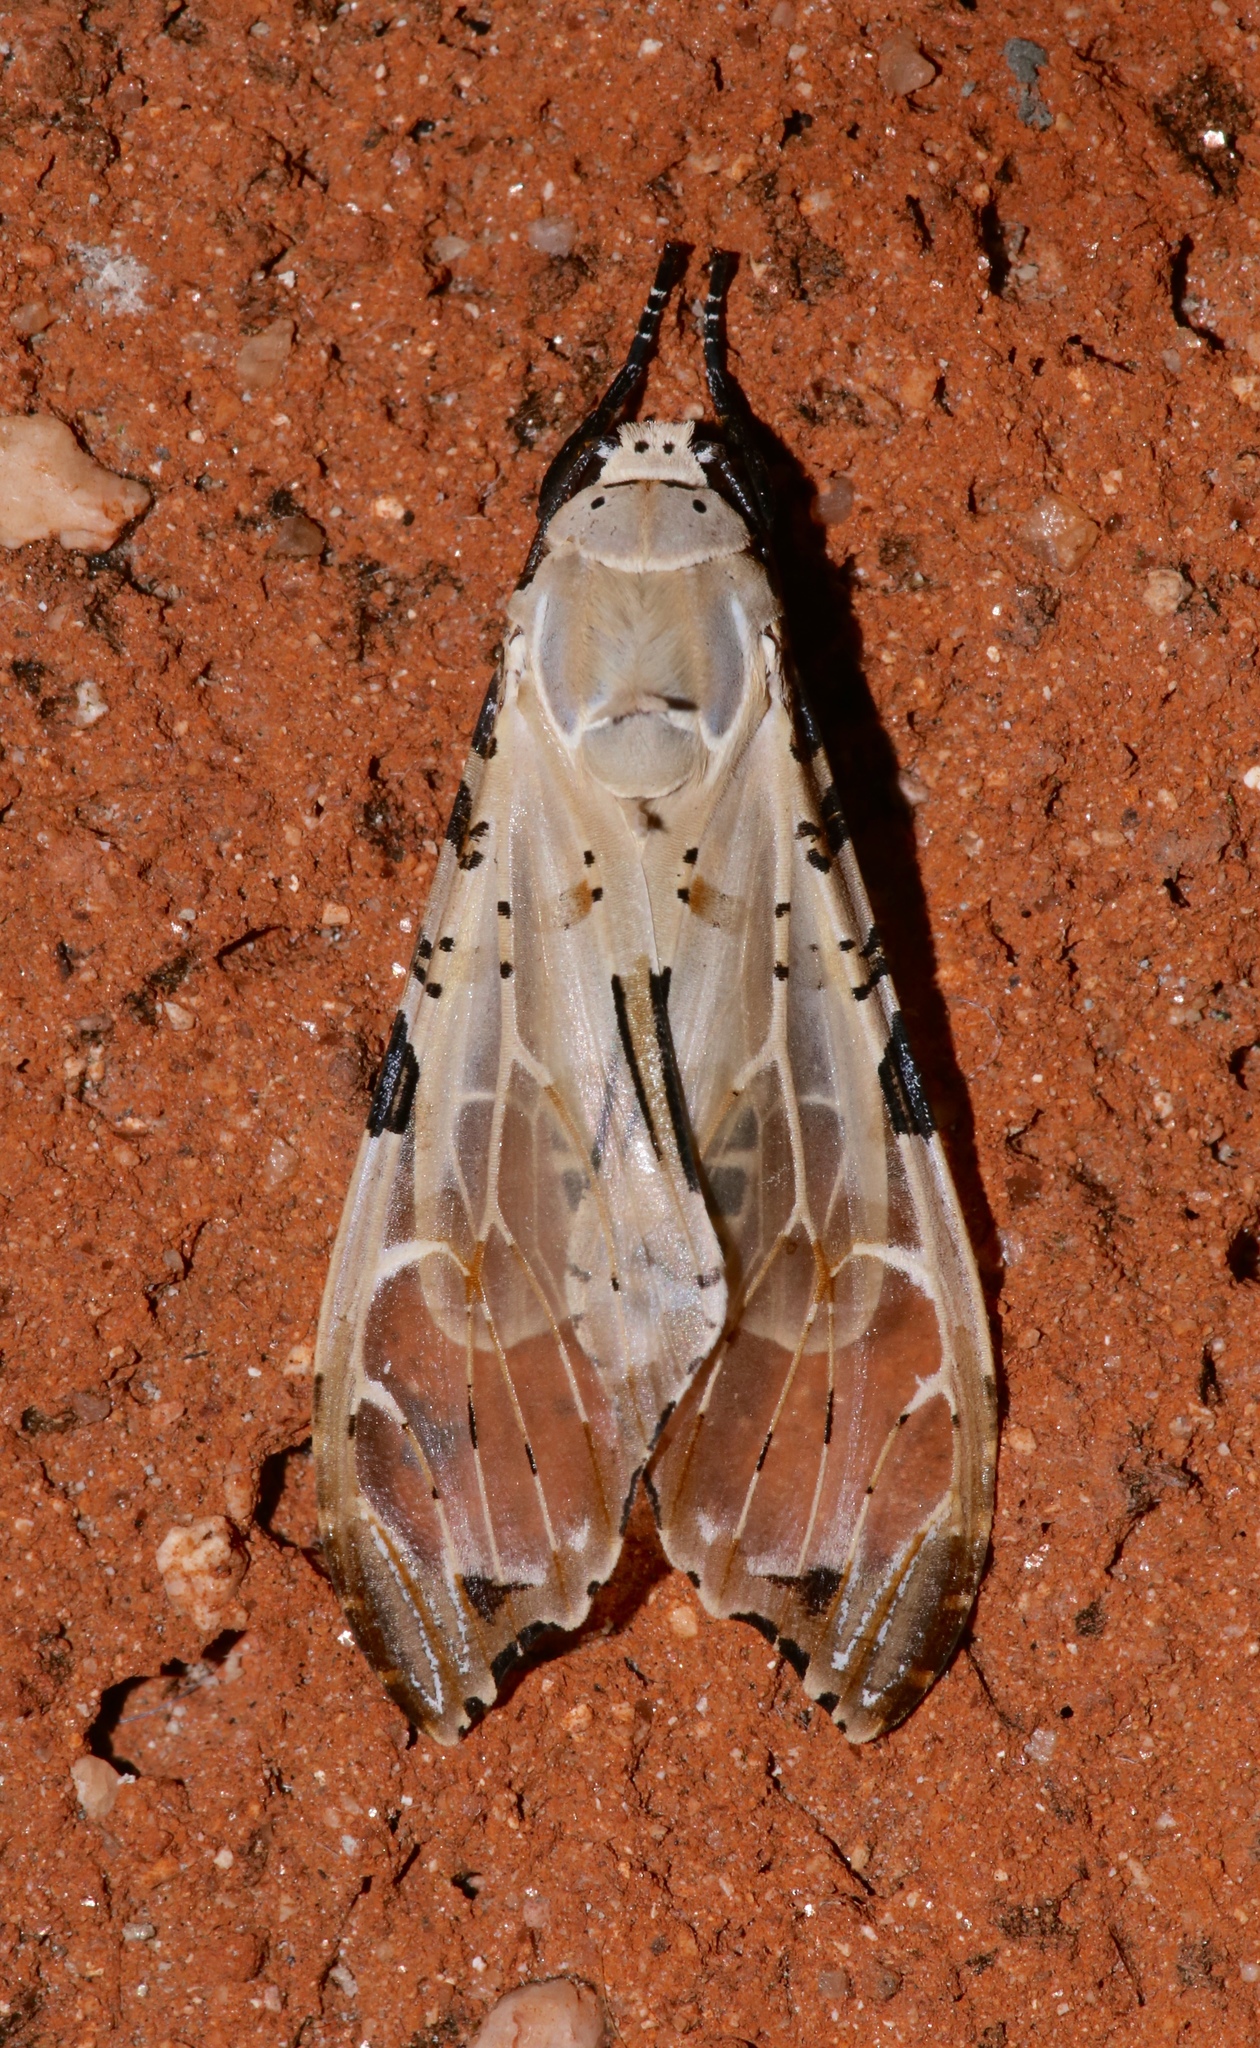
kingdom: Animalia
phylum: Arthropoda
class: Insecta
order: Lepidoptera
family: Erebidae
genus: Psychophasma
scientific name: Psychophasma erosa
